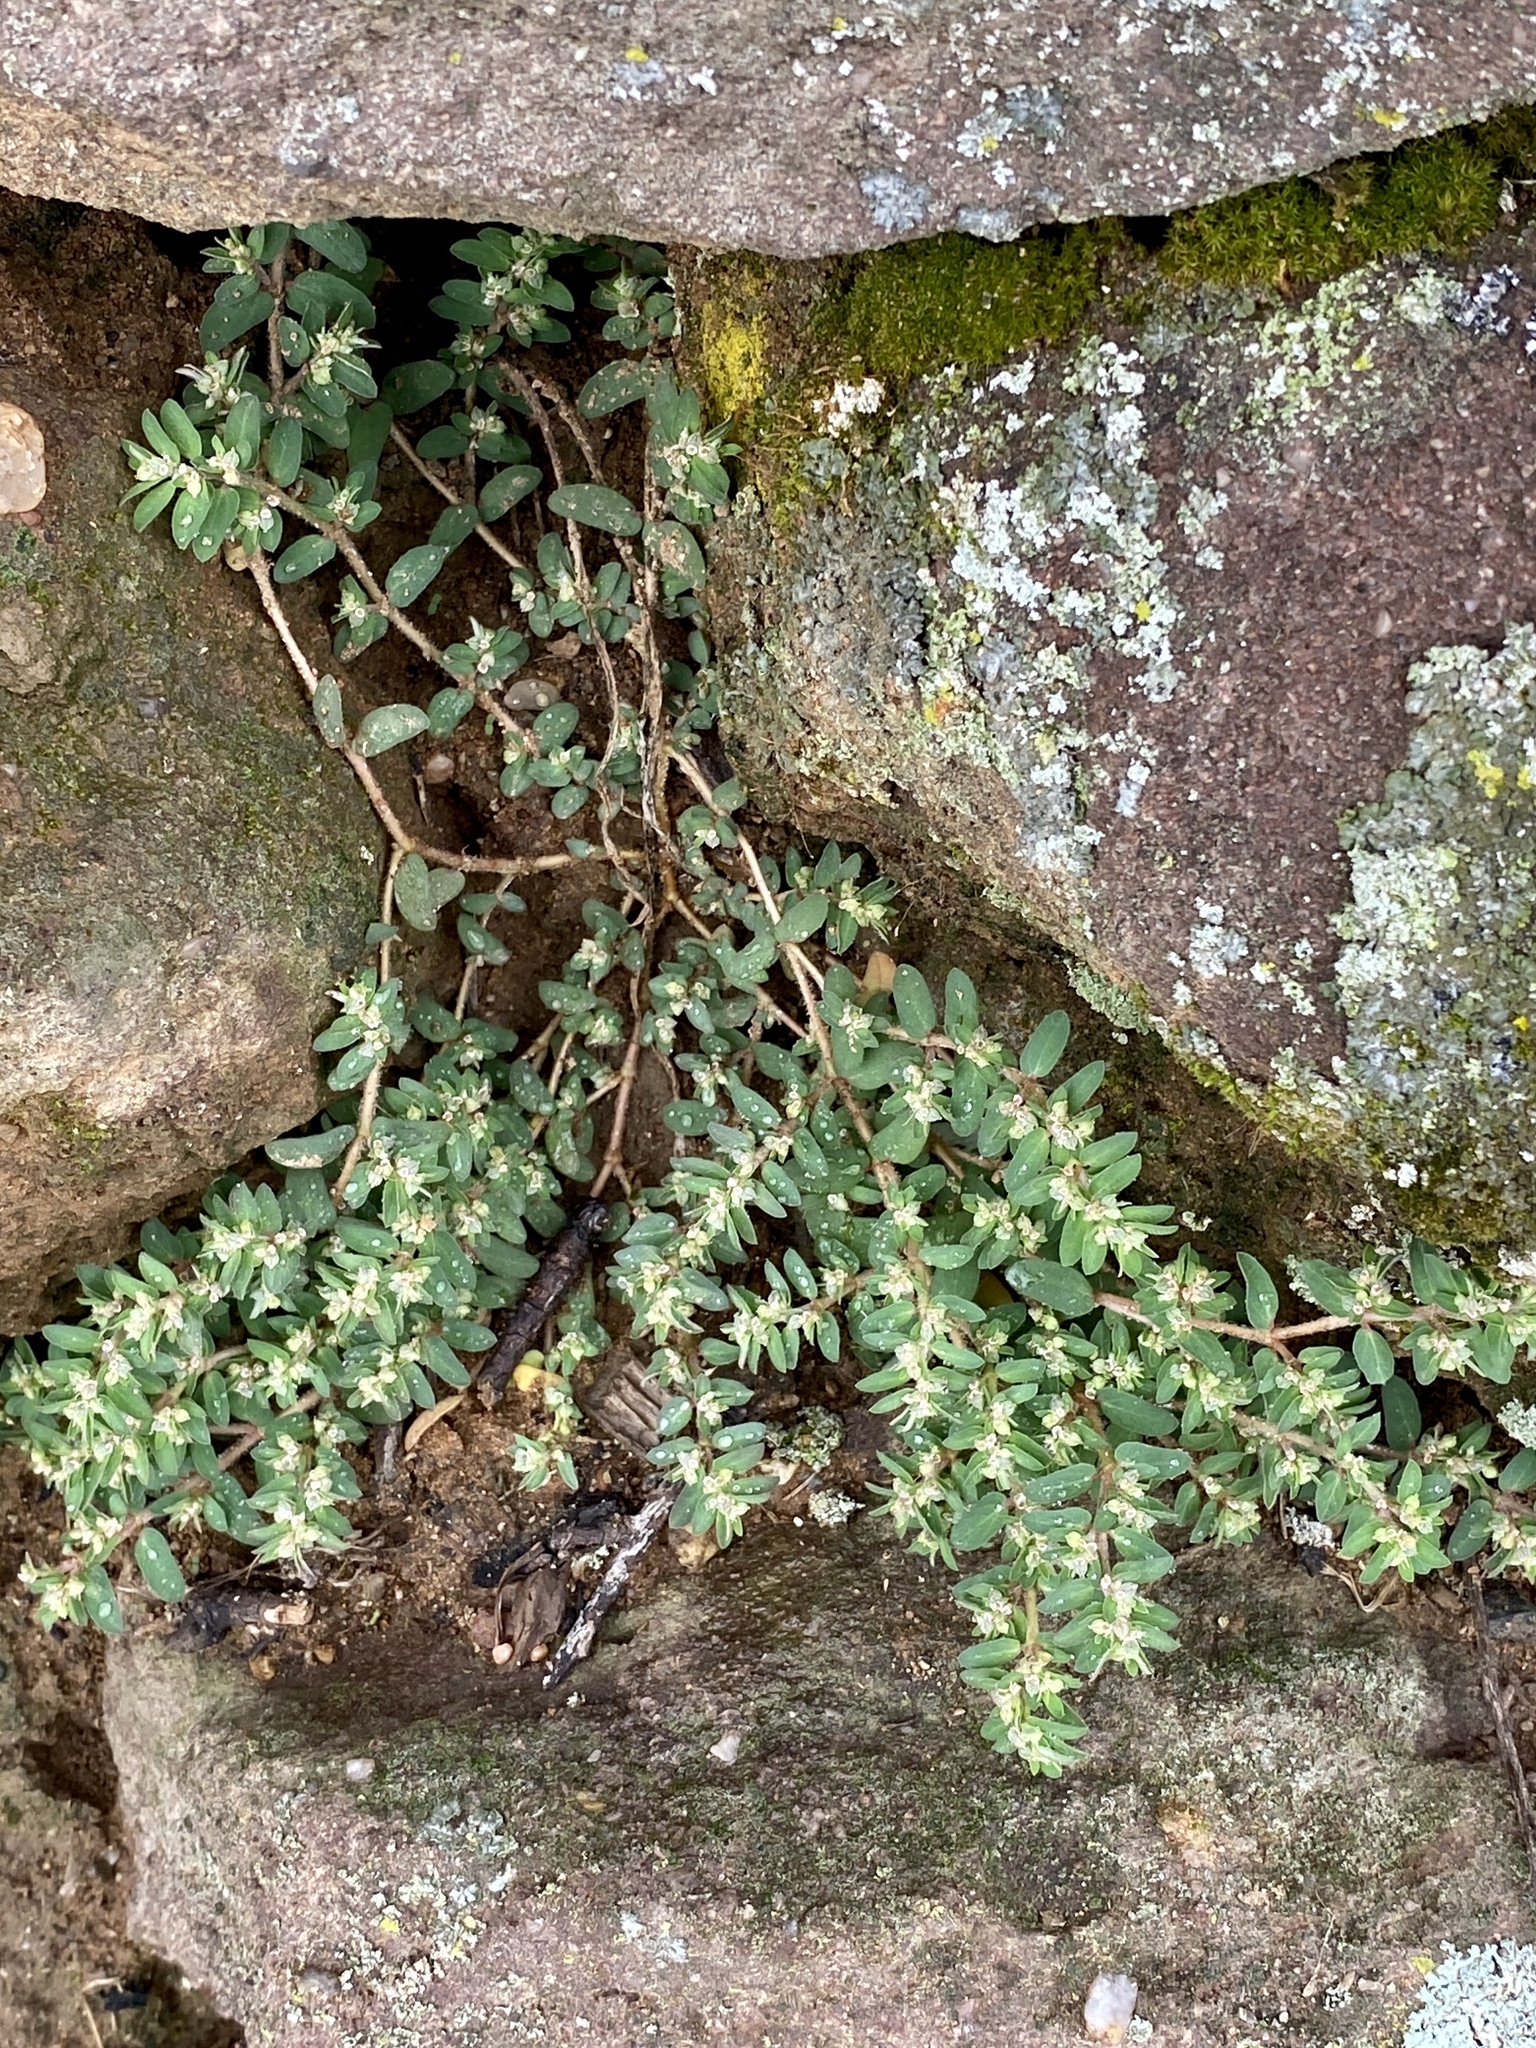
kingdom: Plantae
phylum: Tracheophyta
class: Magnoliopsida
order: Malpighiales
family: Euphorbiaceae
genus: Euphorbia
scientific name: Euphorbia maculata
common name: Spotted spurge
